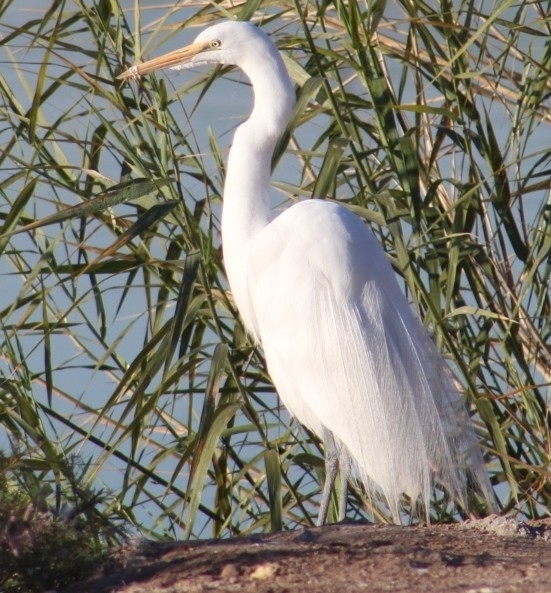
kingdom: Animalia
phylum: Chordata
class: Aves
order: Pelecaniformes
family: Ardeidae
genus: Ardea
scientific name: Ardea alba
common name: Great egret
